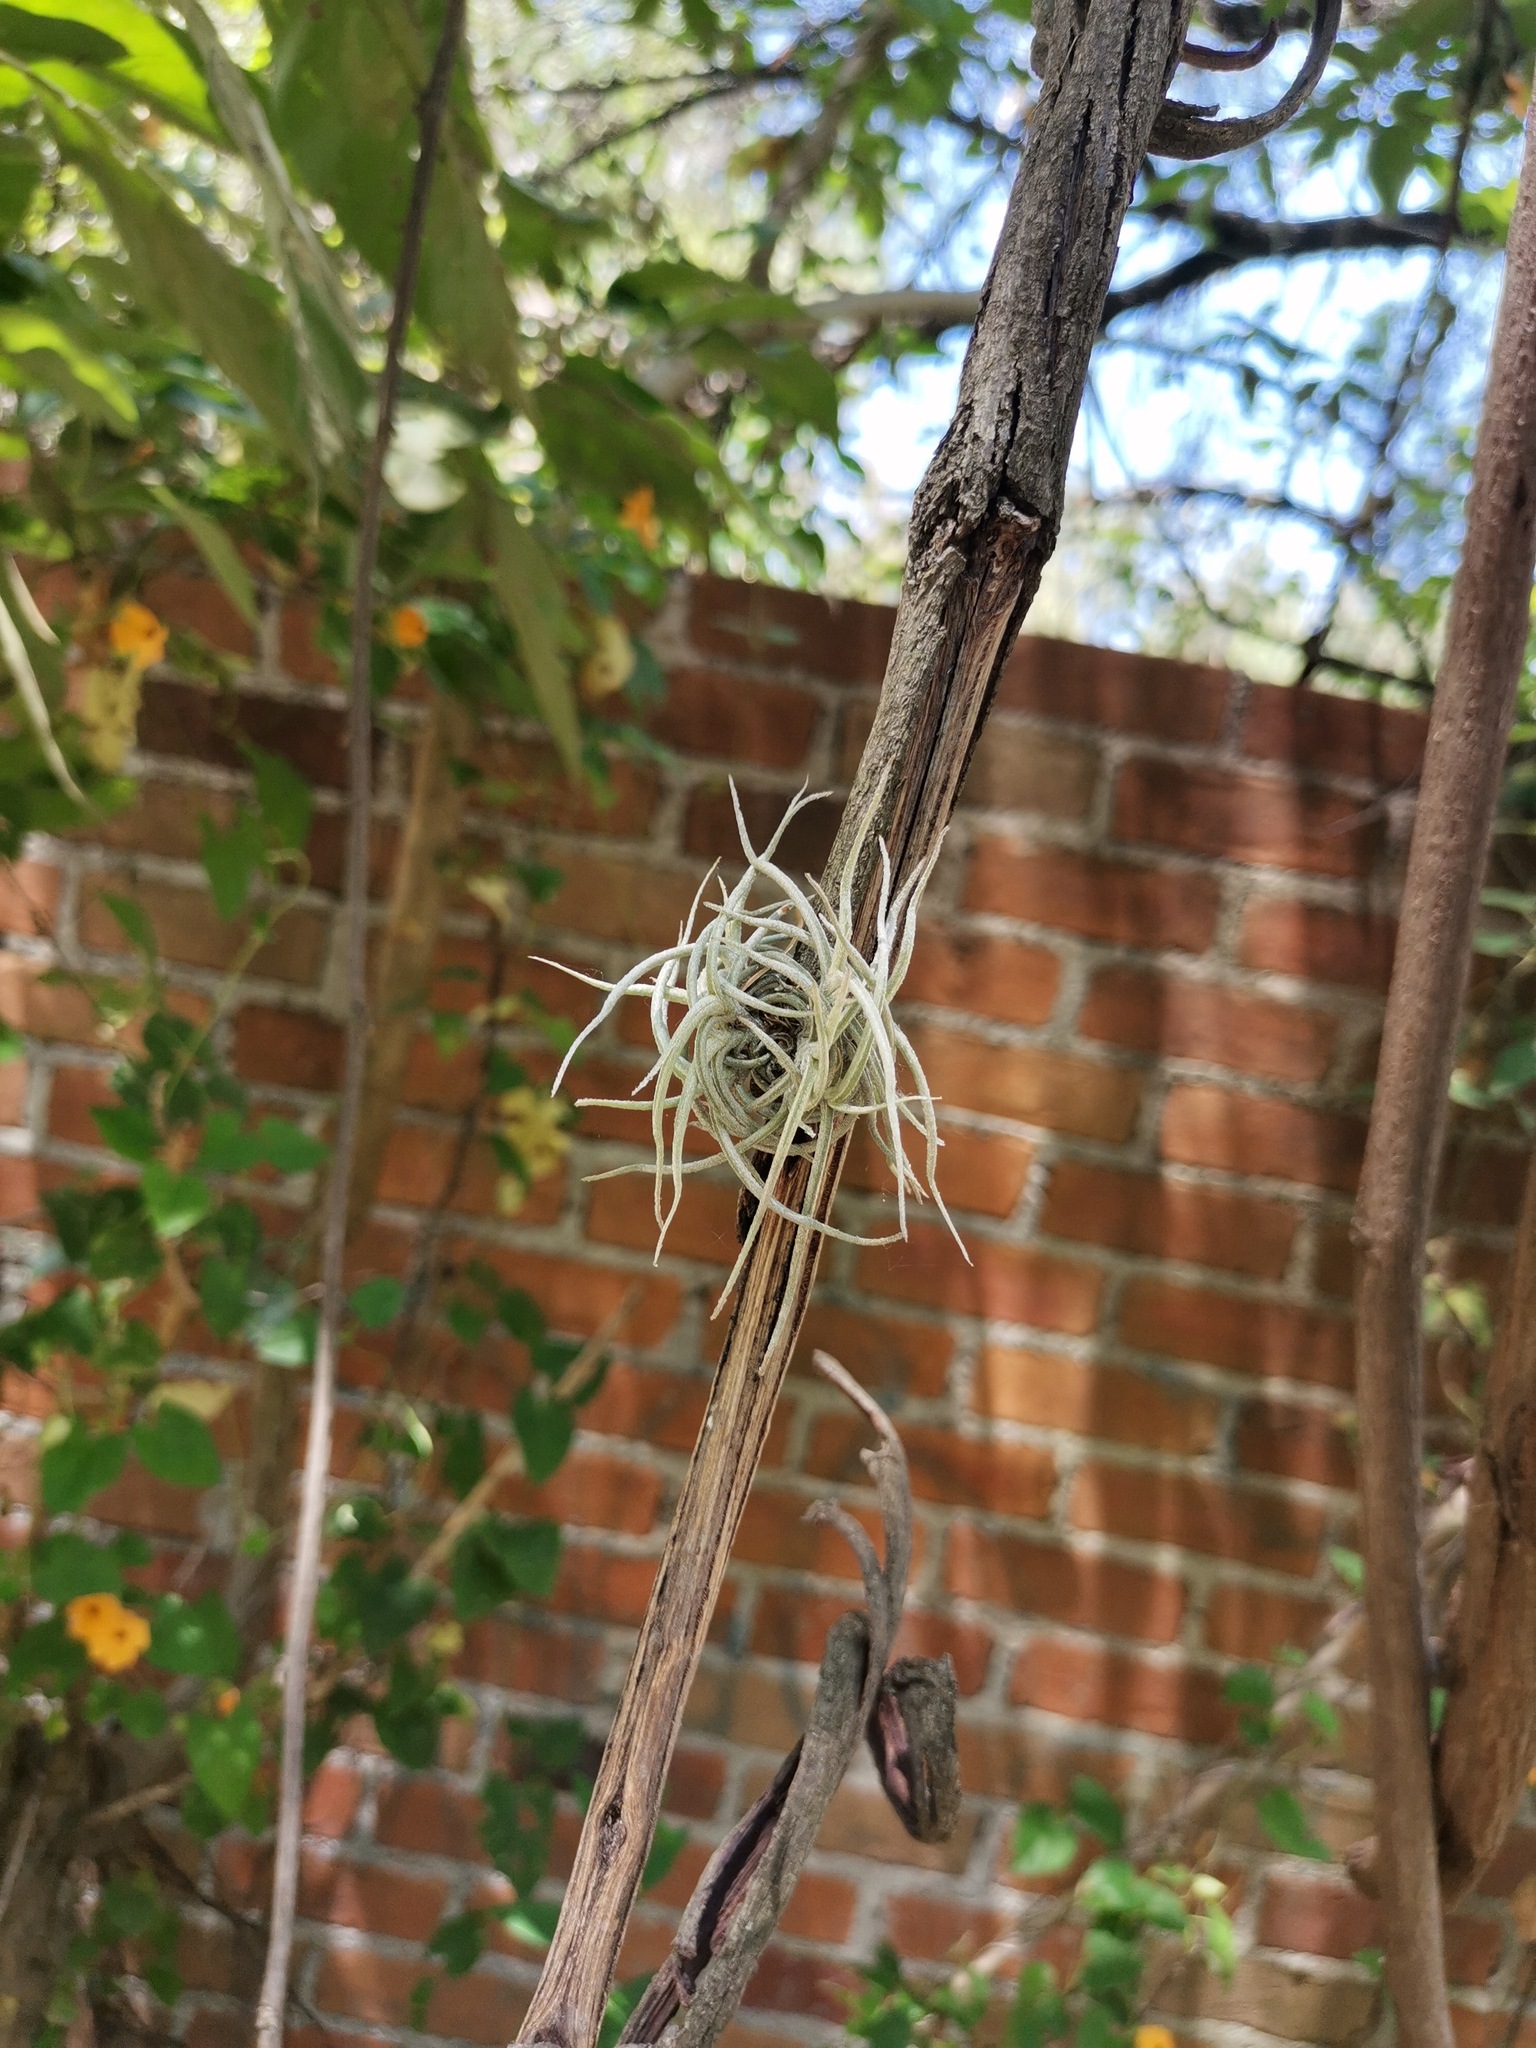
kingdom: Plantae
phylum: Tracheophyta
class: Liliopsida
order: Poales
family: Bromeliaceae
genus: Tillandsia
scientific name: Tillandsia recurvata
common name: Small ballmoss
